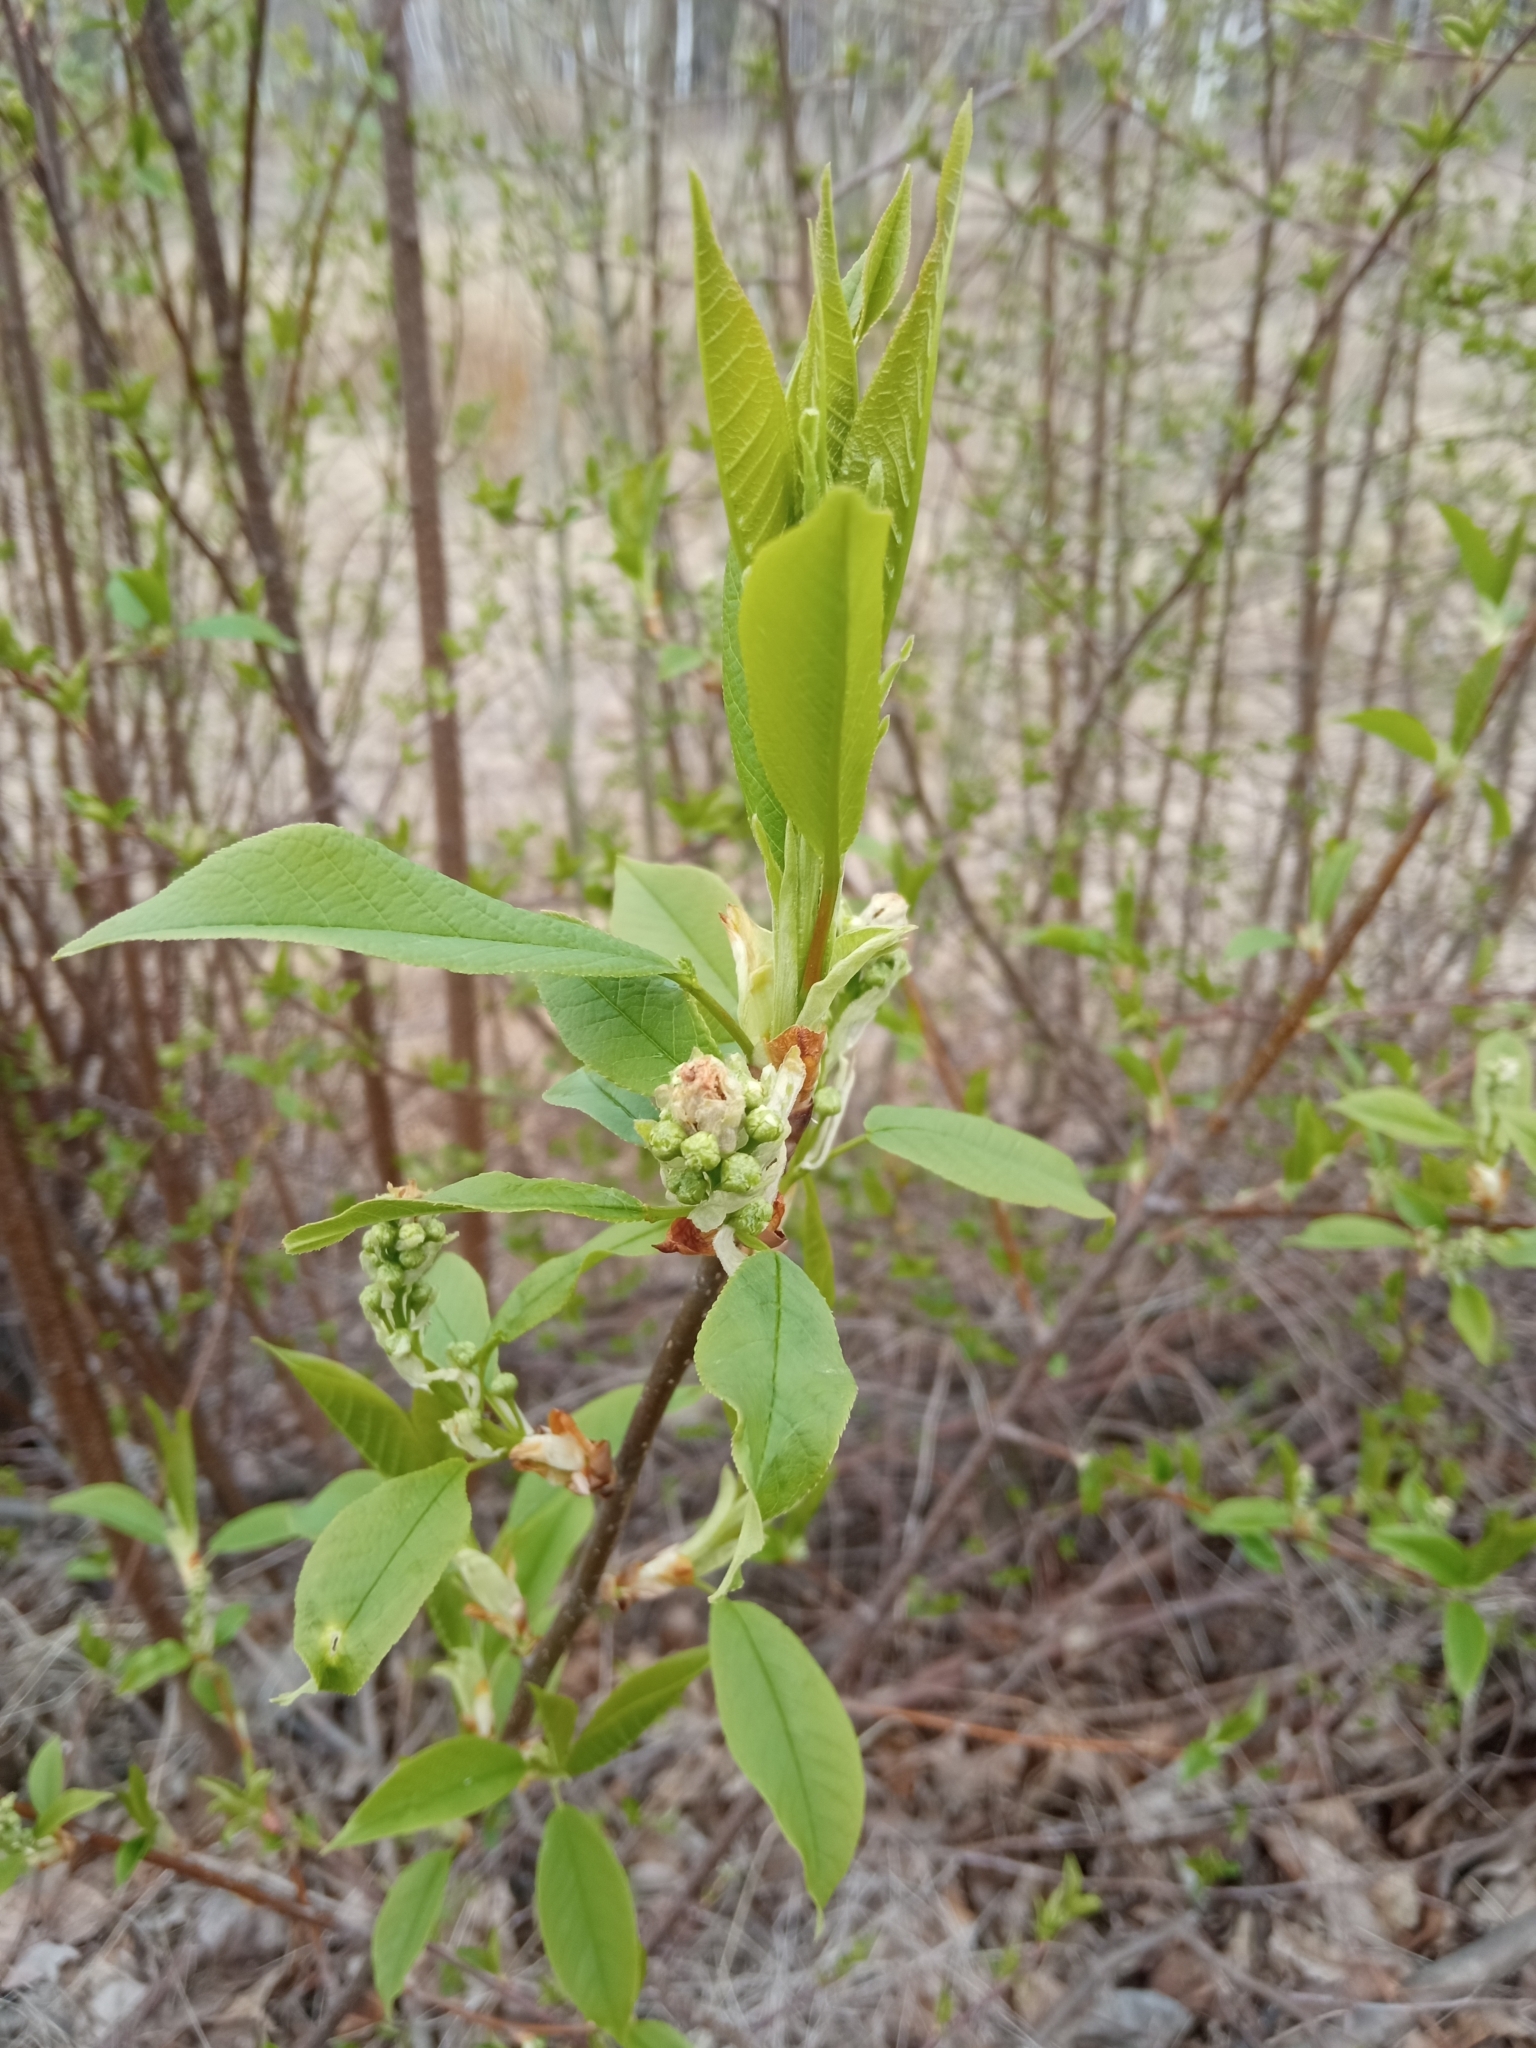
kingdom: Plantae
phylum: Tracheophyta
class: Magnoliopsida
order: Rosales
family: Rosaceae
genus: Prunus
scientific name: Prunus padus
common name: Bird cherry
